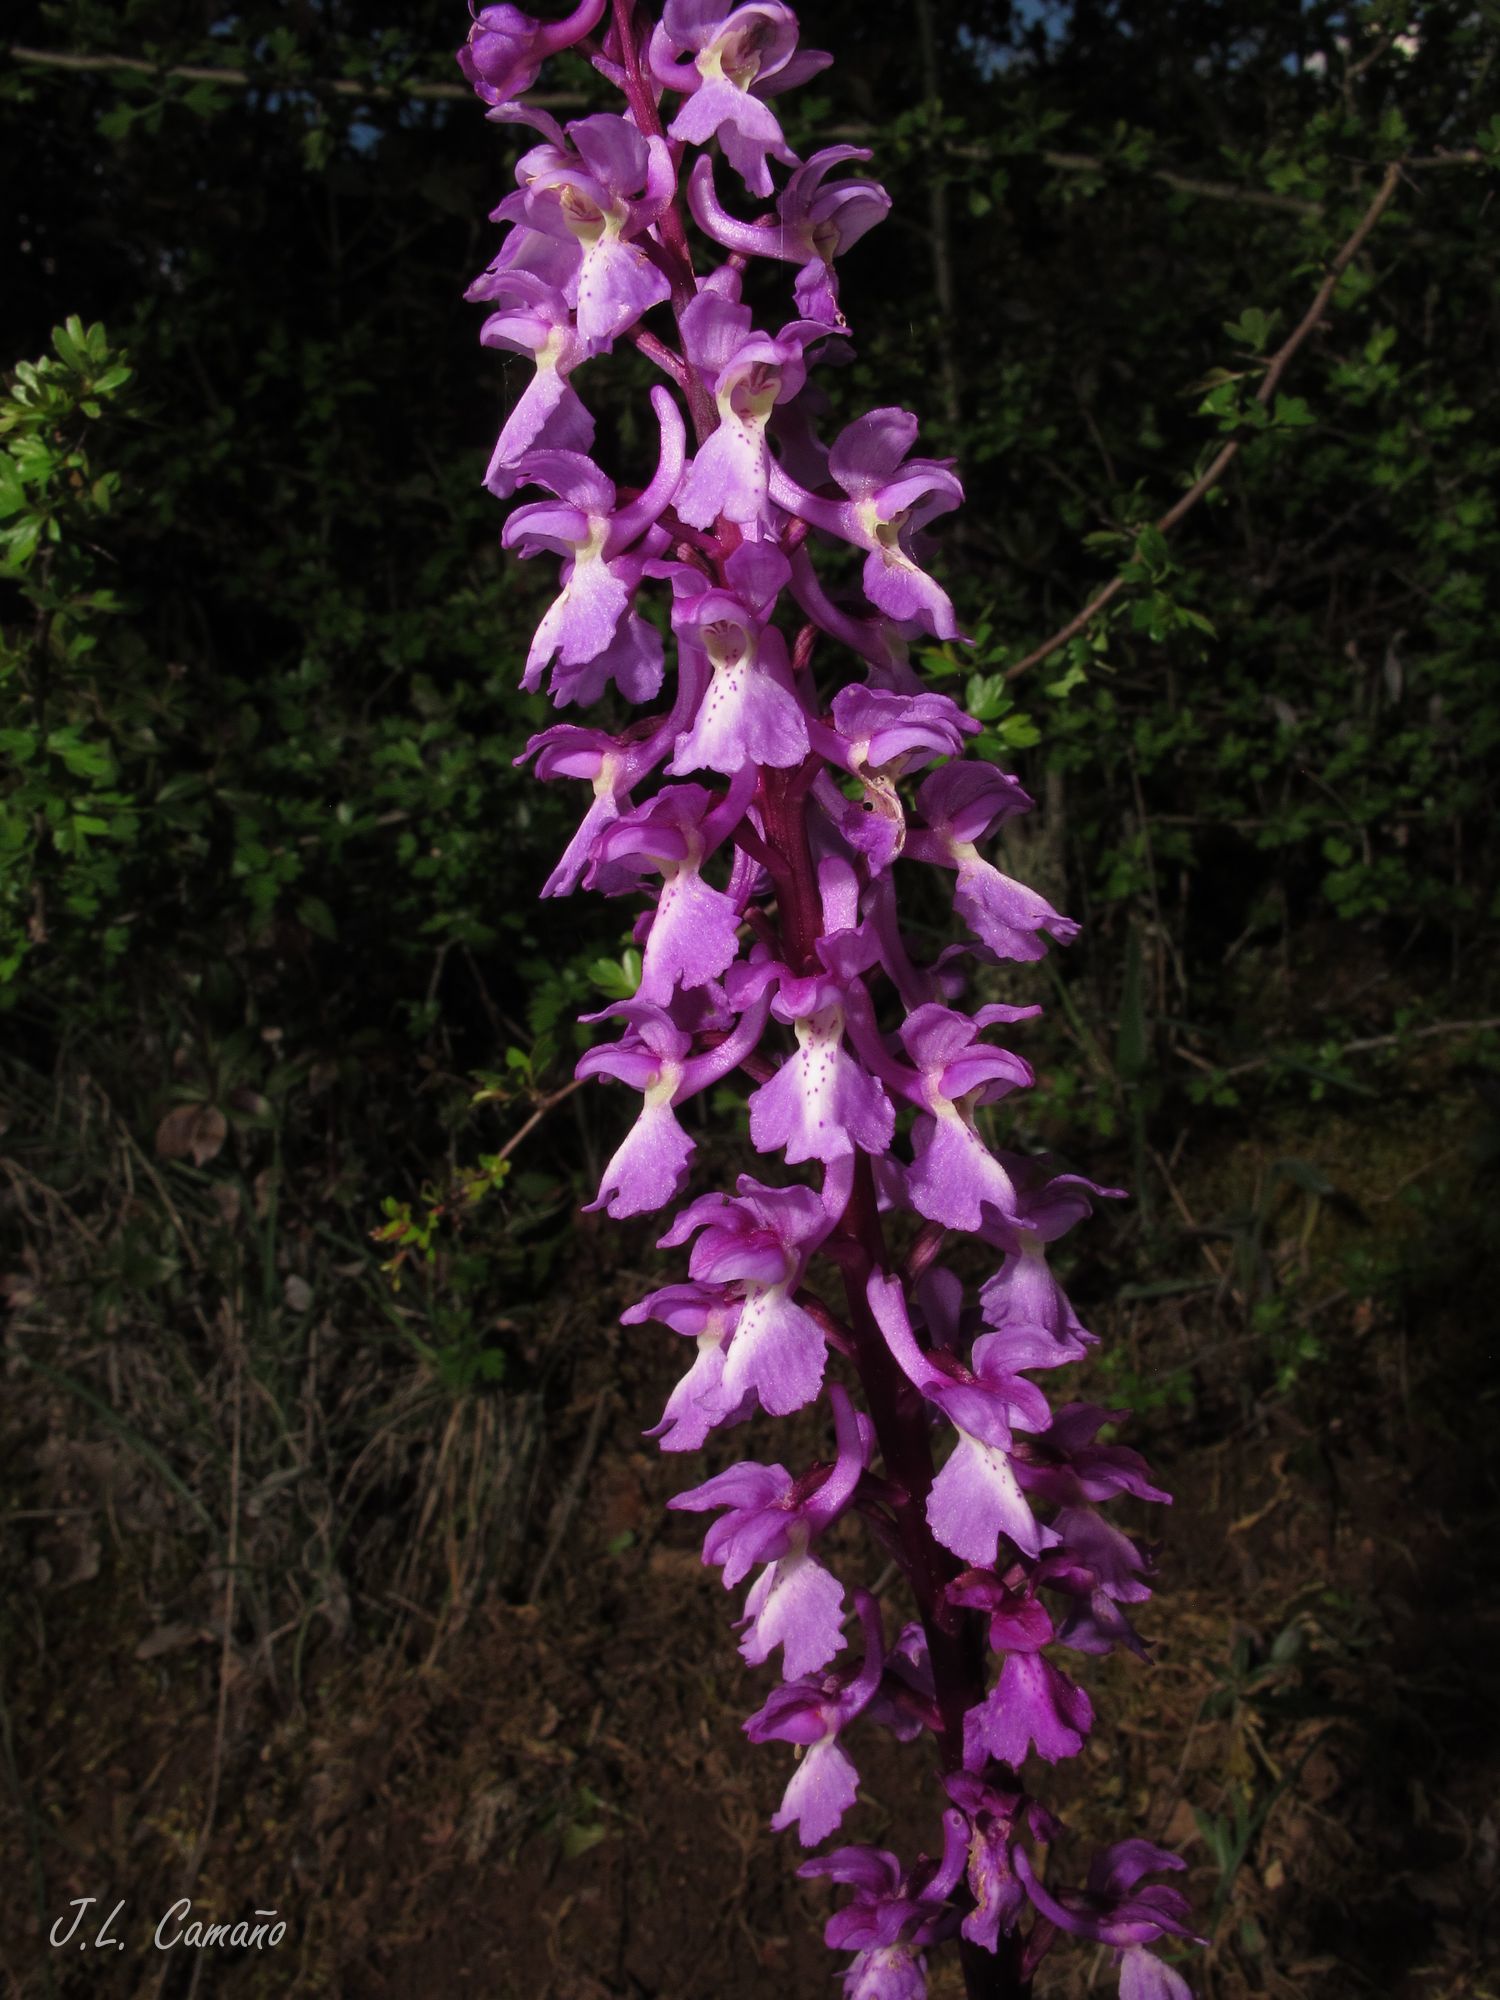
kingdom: Plantae
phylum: Tracheophyta
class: Liliopsida
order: Asparagales
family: Orchidaceae
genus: Orchis
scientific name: Orchis mascula
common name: Early-purple orchid
